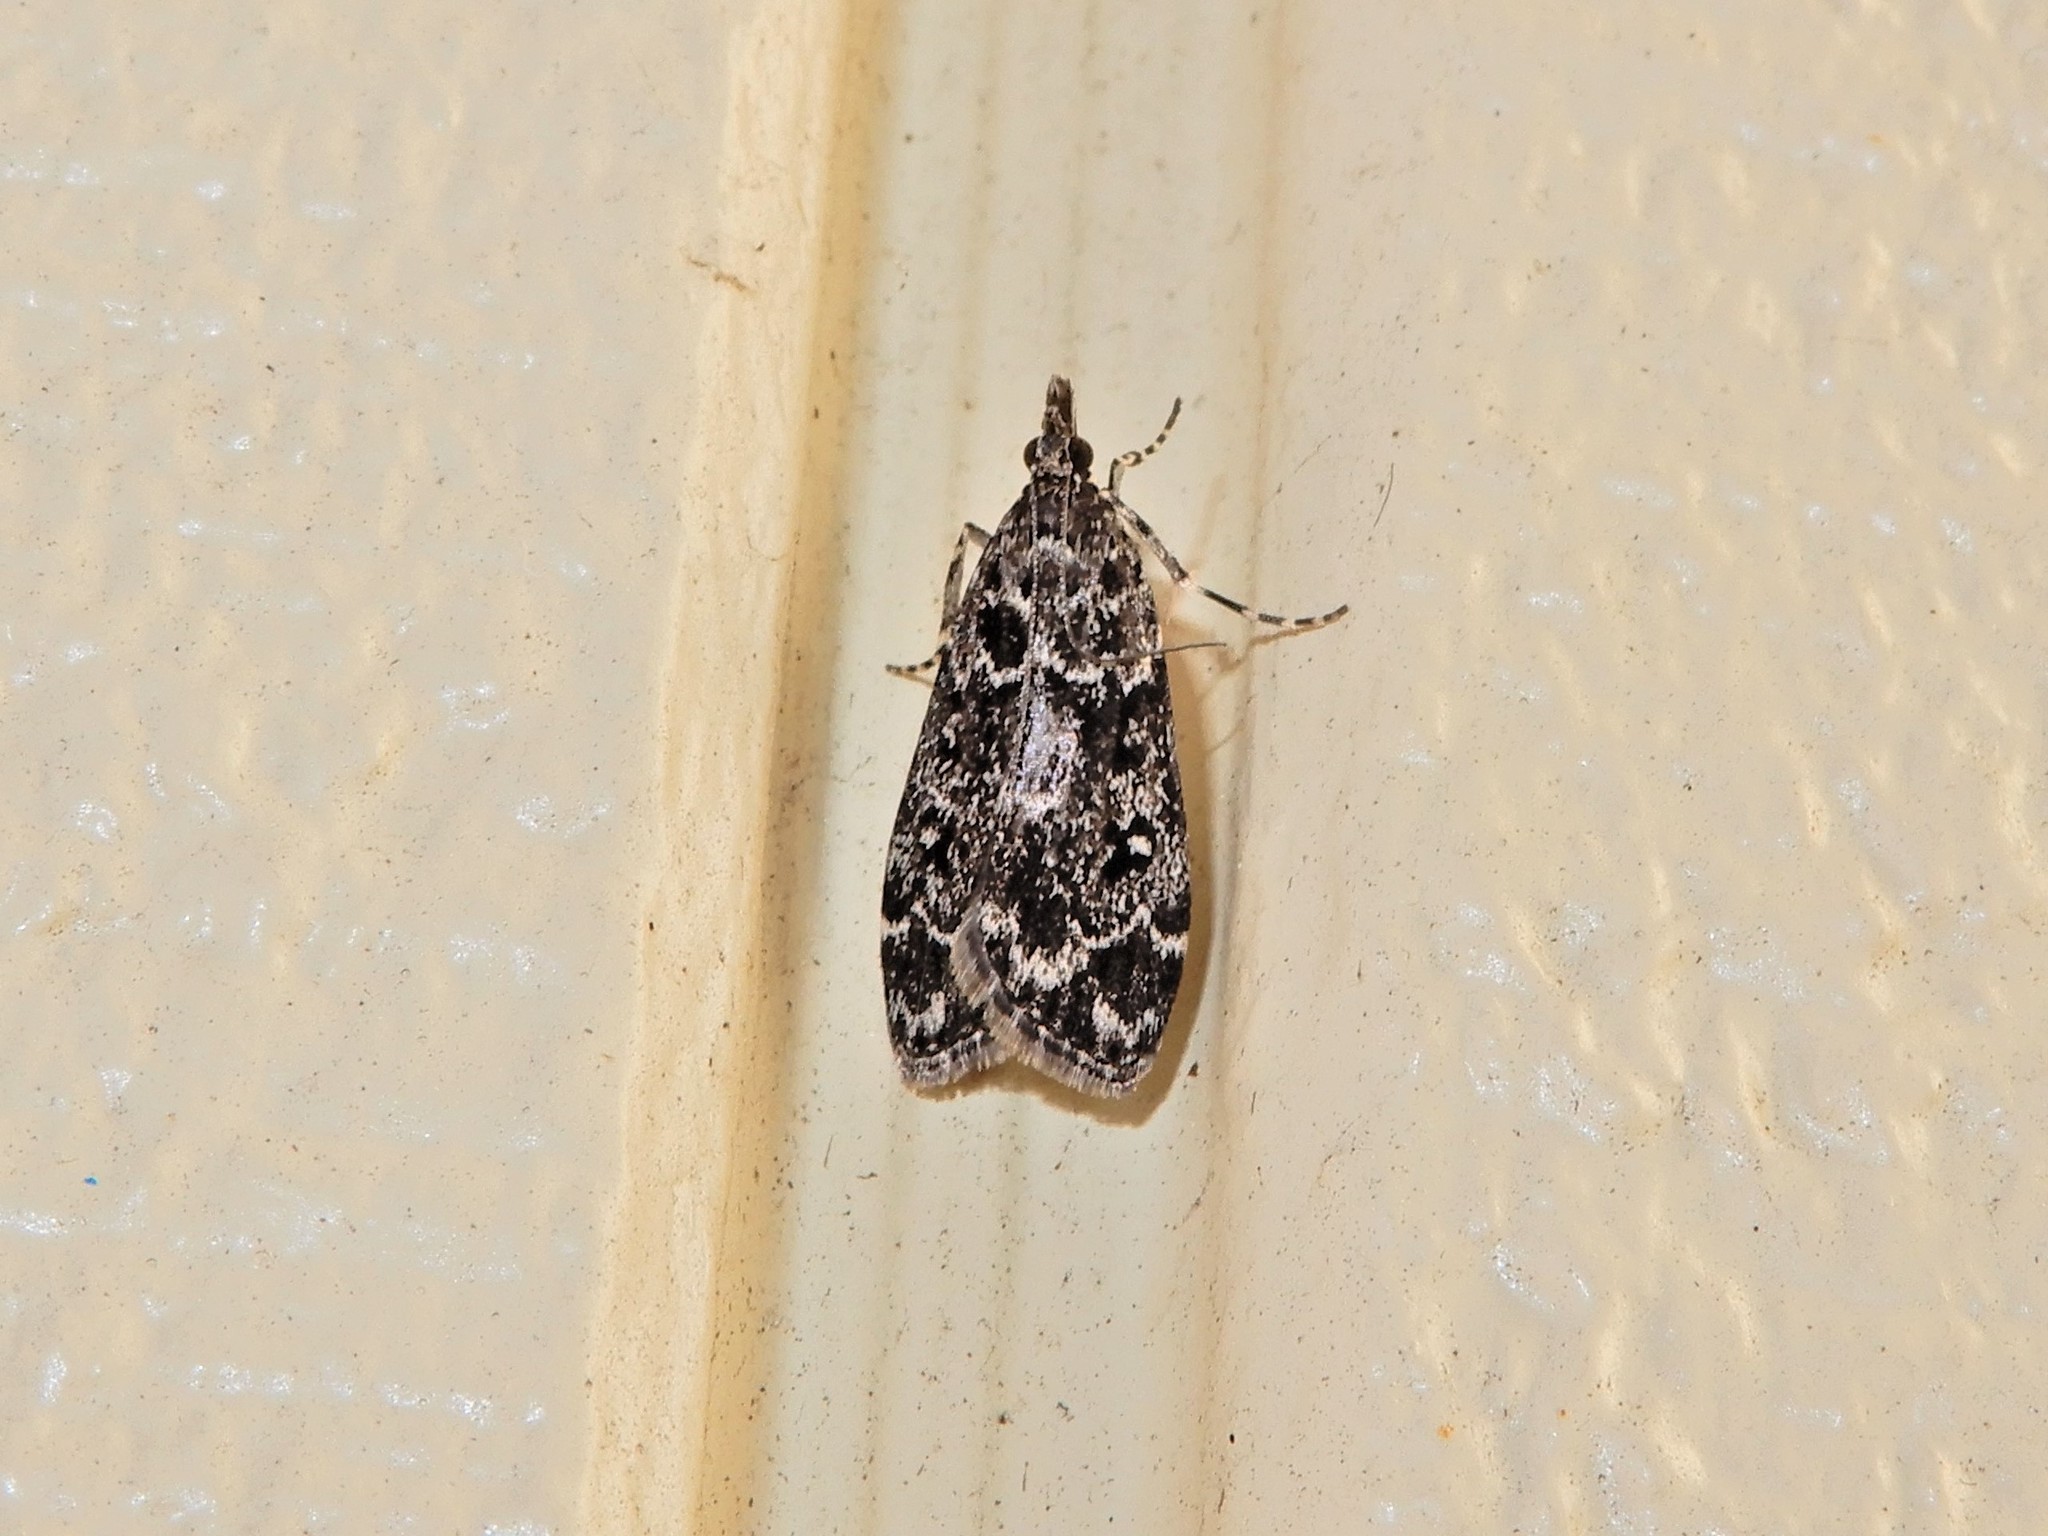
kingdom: Animalia
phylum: Arthropoda
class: Insecta
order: Lepidoptera
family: Crambidae
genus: Eudonia
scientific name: Eudonia philerga
